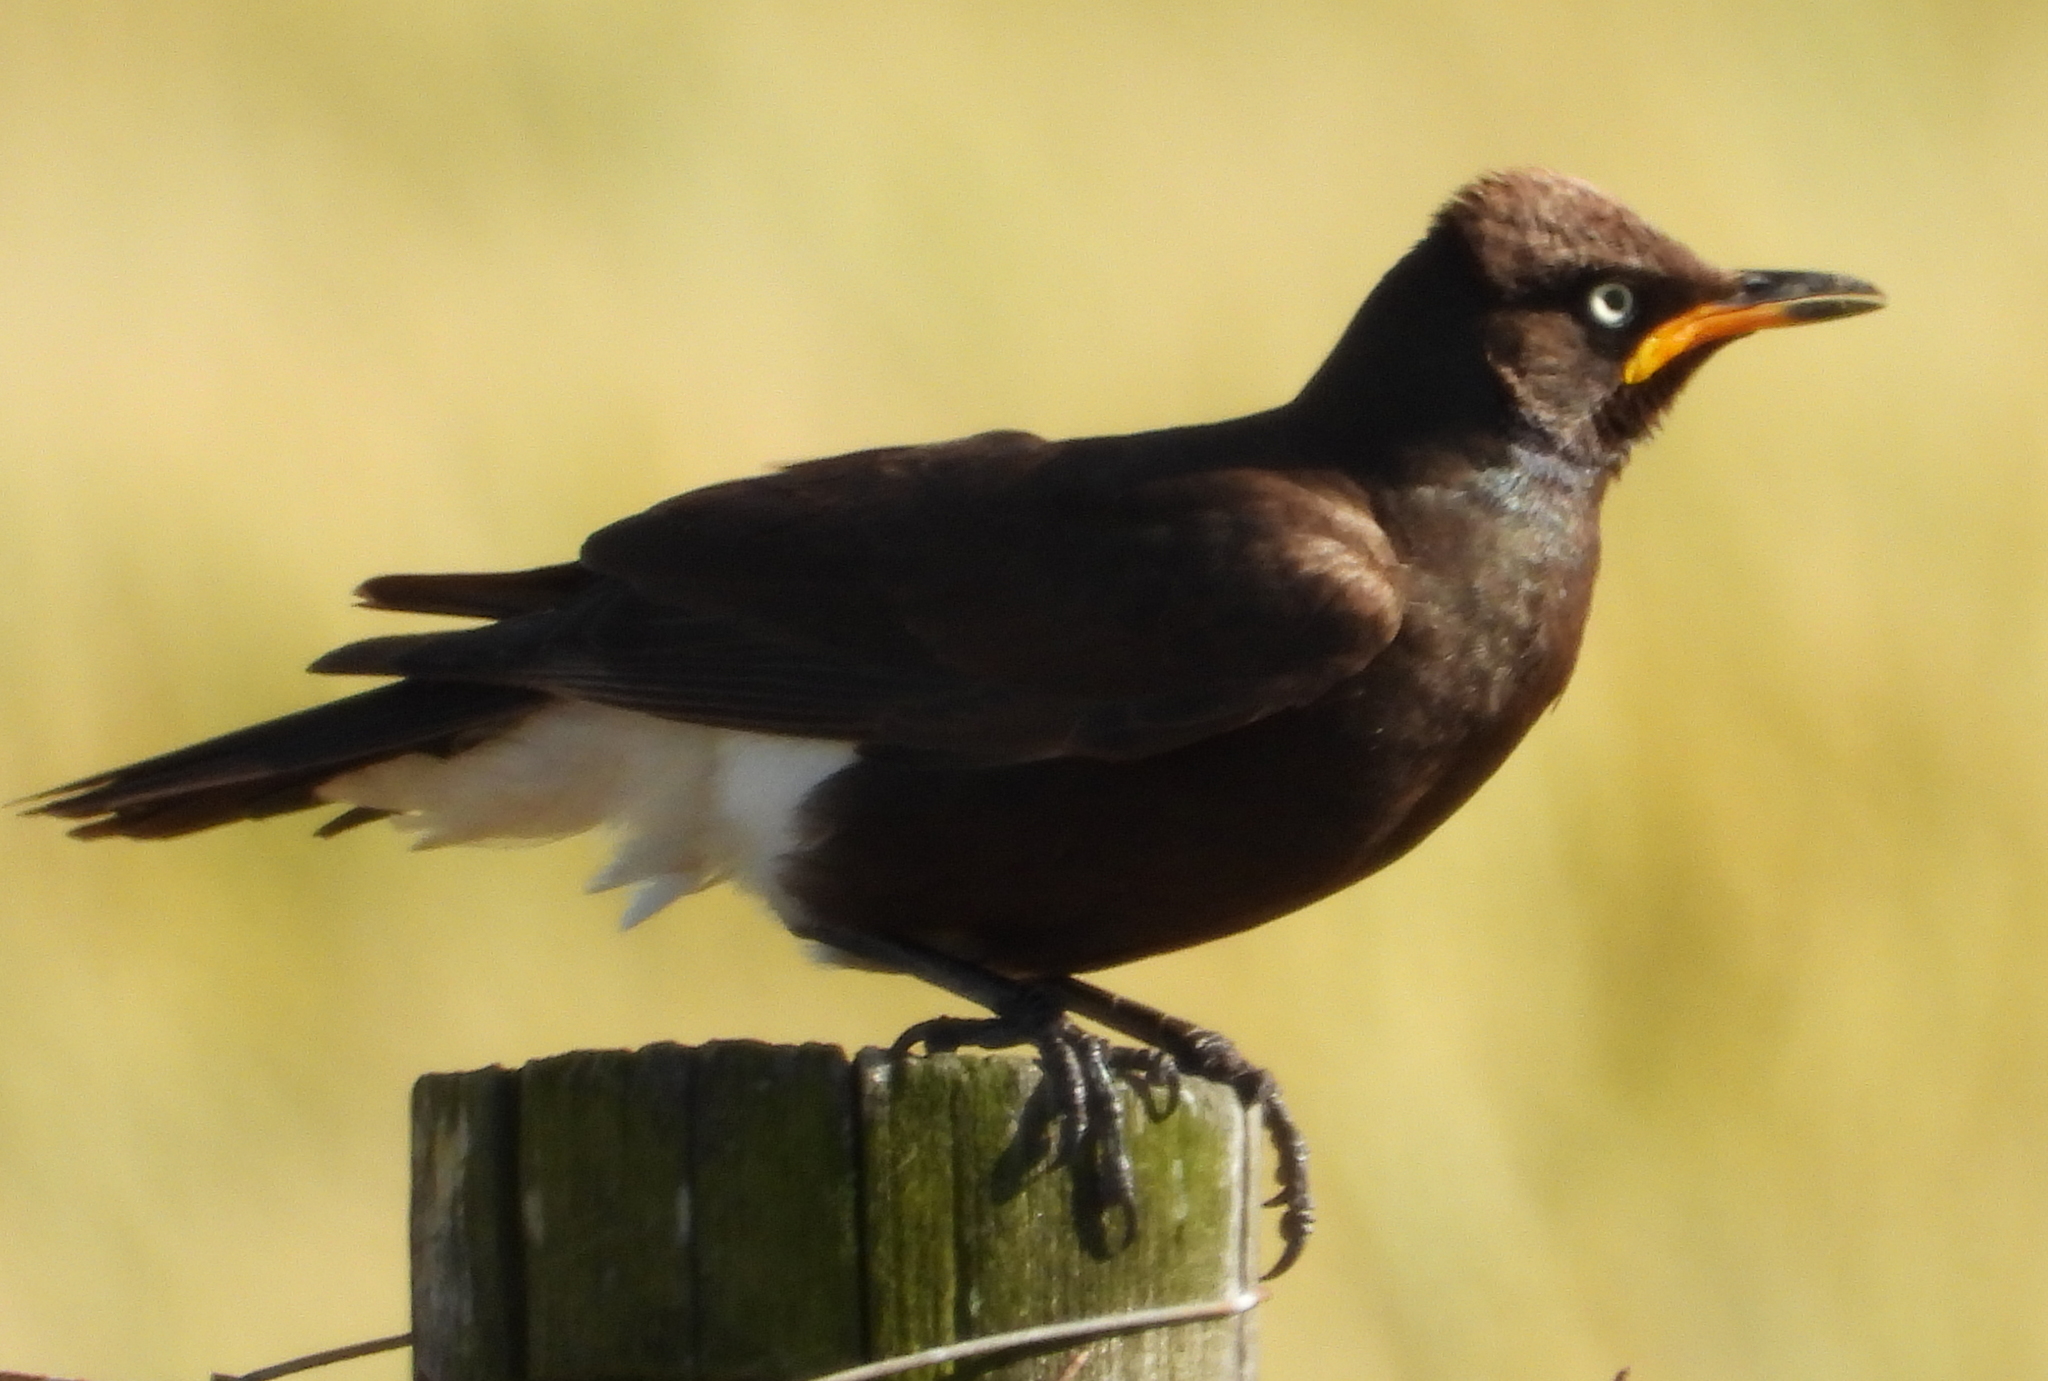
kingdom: Animalia
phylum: Chordata
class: Aves
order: Passeriformes
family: Sturnidae
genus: Lamprotornis
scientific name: Lamprotornis bicolor
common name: Pied starling
